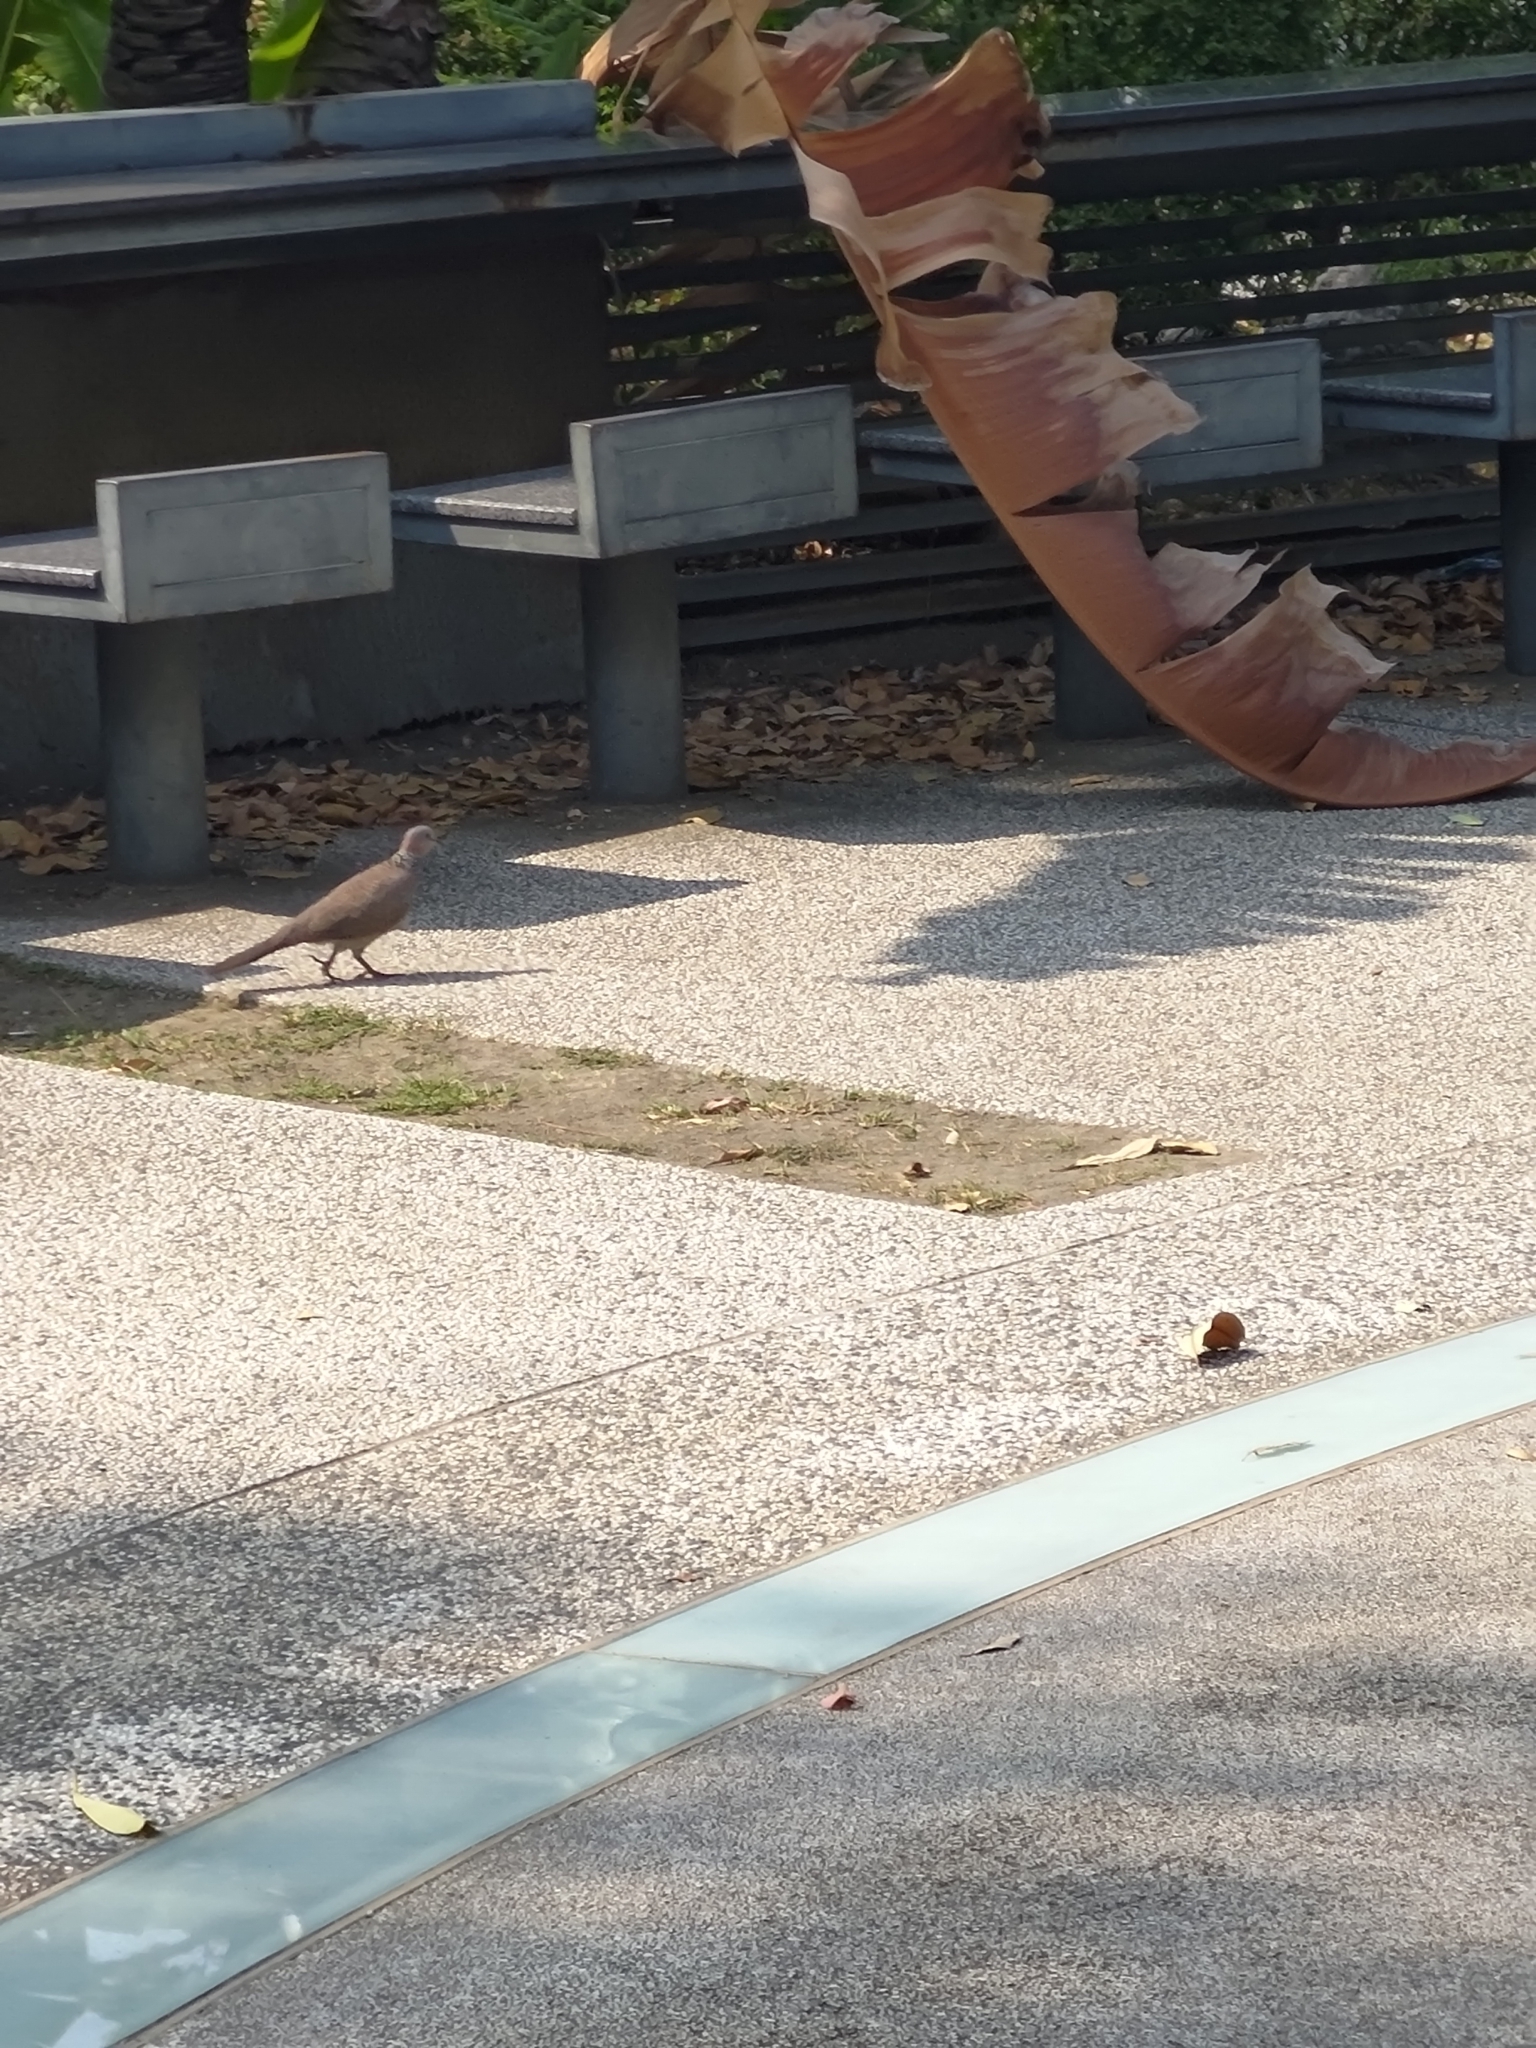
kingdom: Animalia
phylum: Chordata
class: Aves
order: Columbiformes
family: Columbidae
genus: Spilopelia
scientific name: Spilopelia chinensis
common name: Spotted dove
